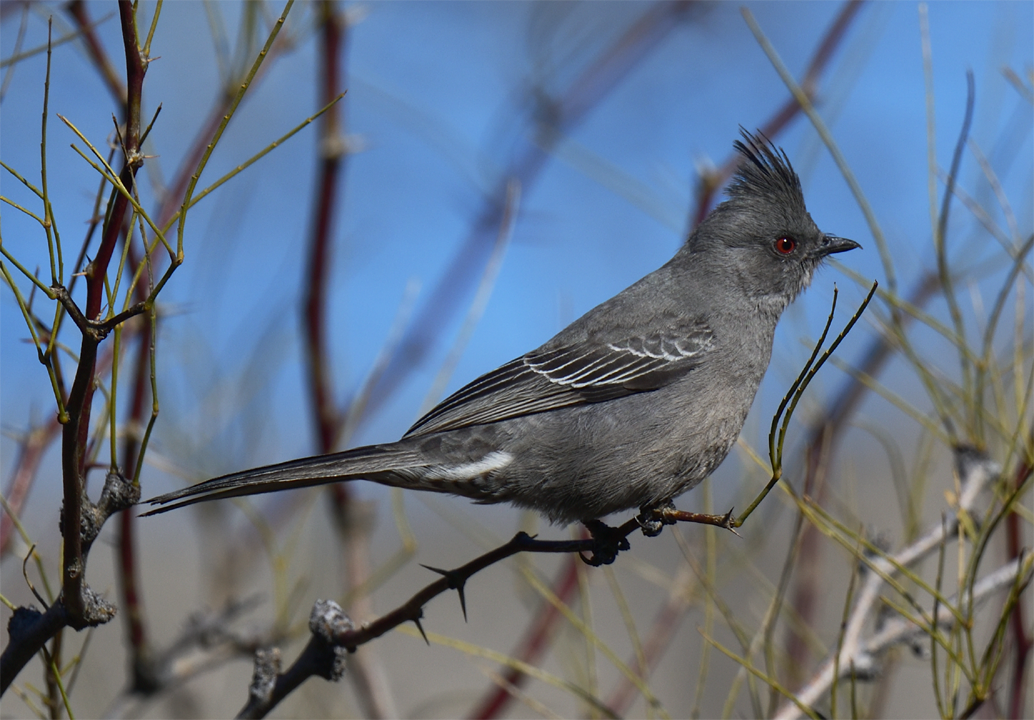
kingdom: Animalia
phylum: Chordata
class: Aves
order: Passeriformes
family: Ptilogonatidae
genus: Phainopepla
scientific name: Phainopepla nitens
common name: Phainopepla
